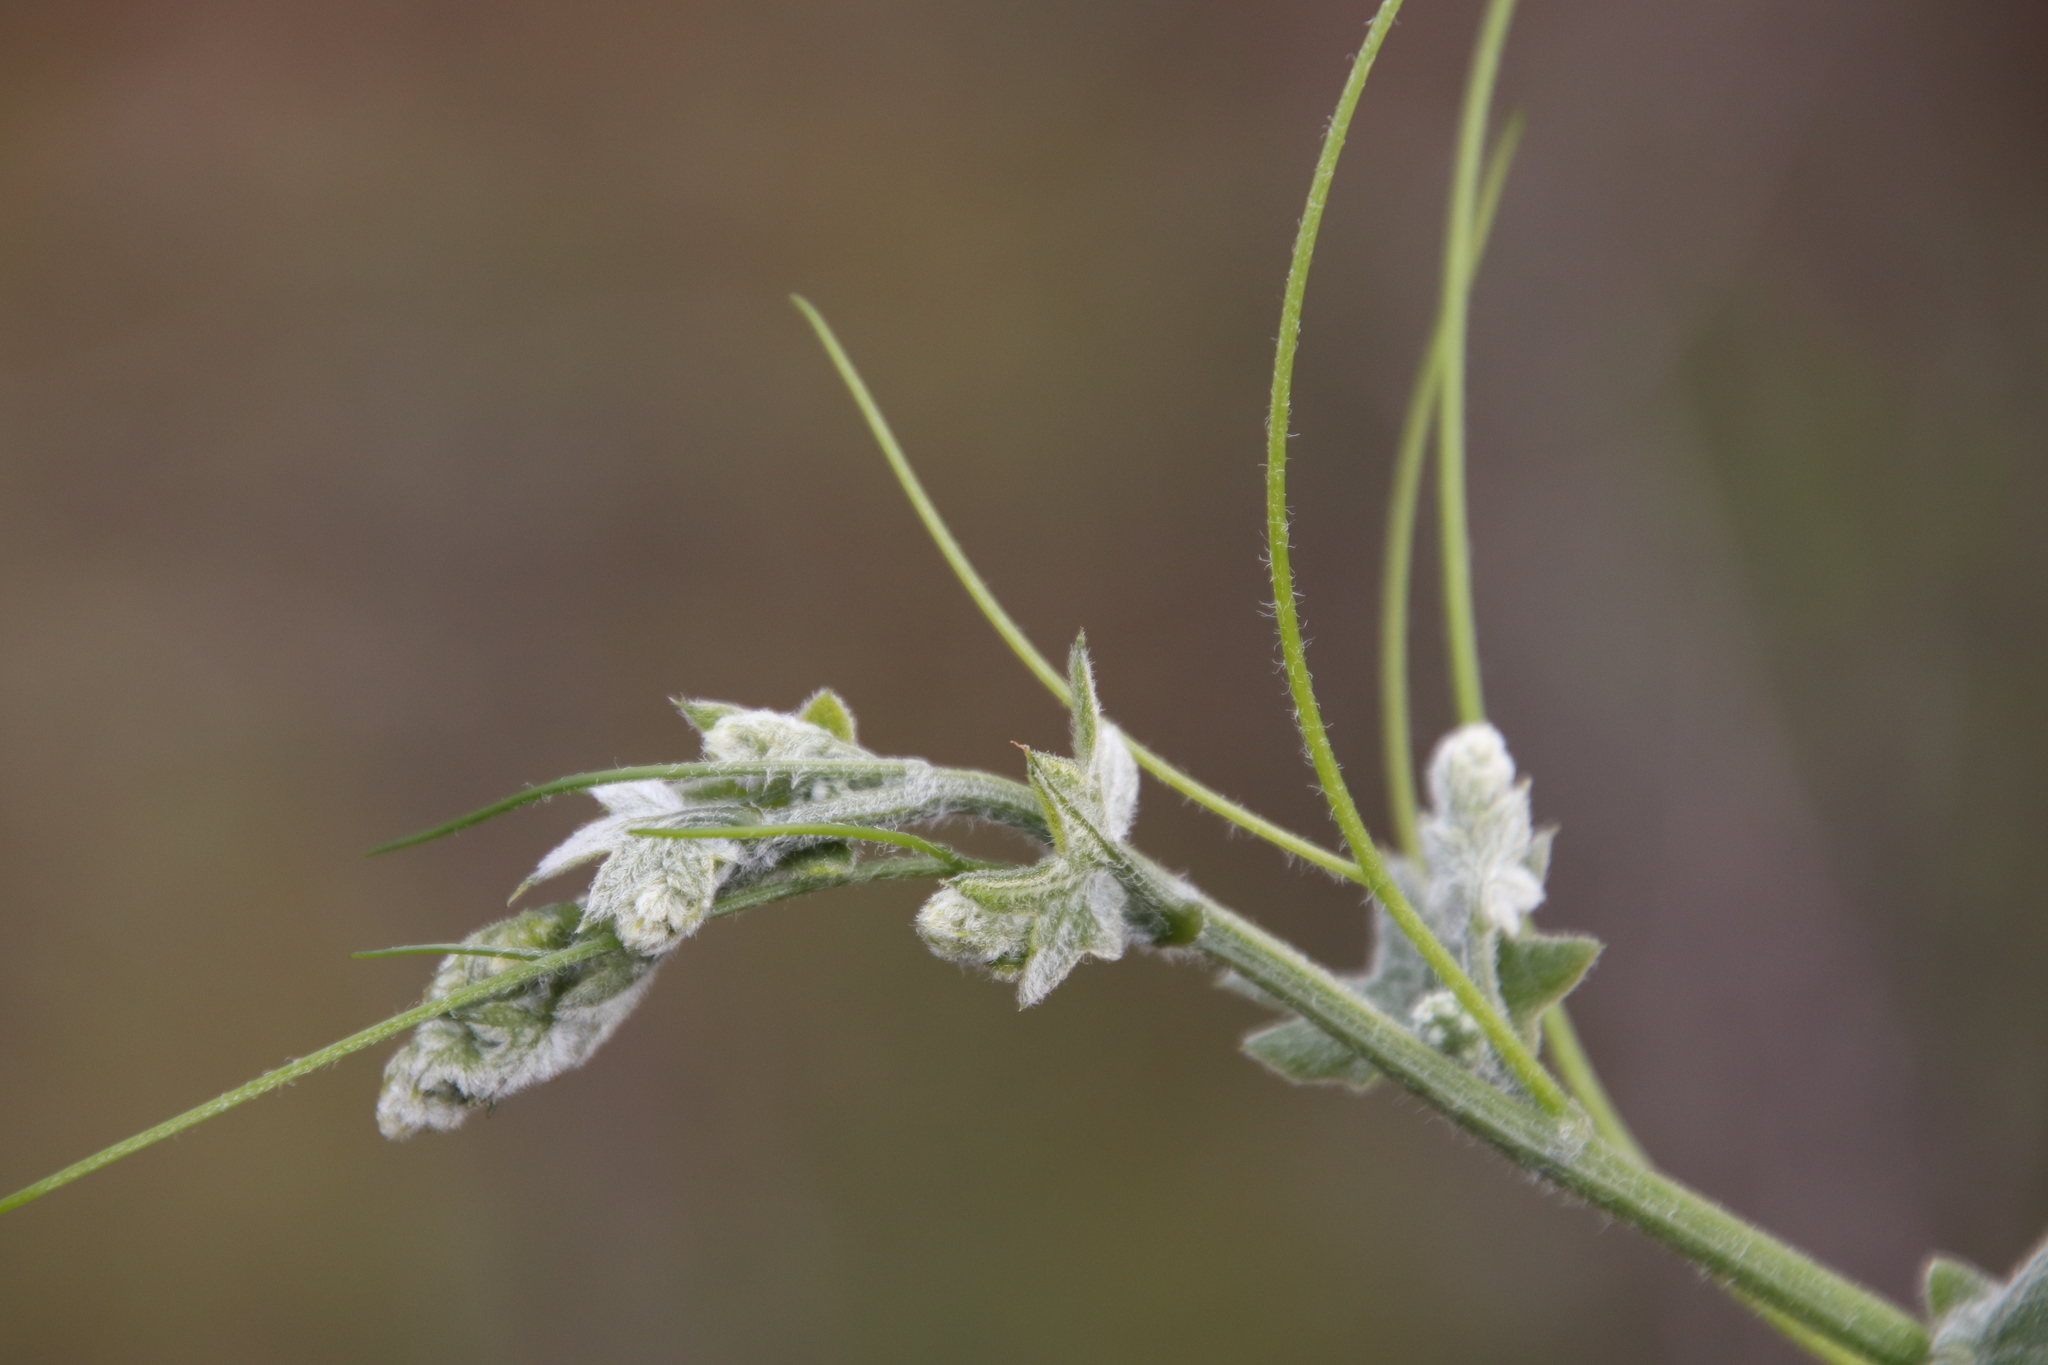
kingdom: Plantae
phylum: Tracheophyta
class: Magnoliopsida
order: Cucurbitales
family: Cucurbitaceae
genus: Marah
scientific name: Marah macrocarpa
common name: Cucamonga manroot
